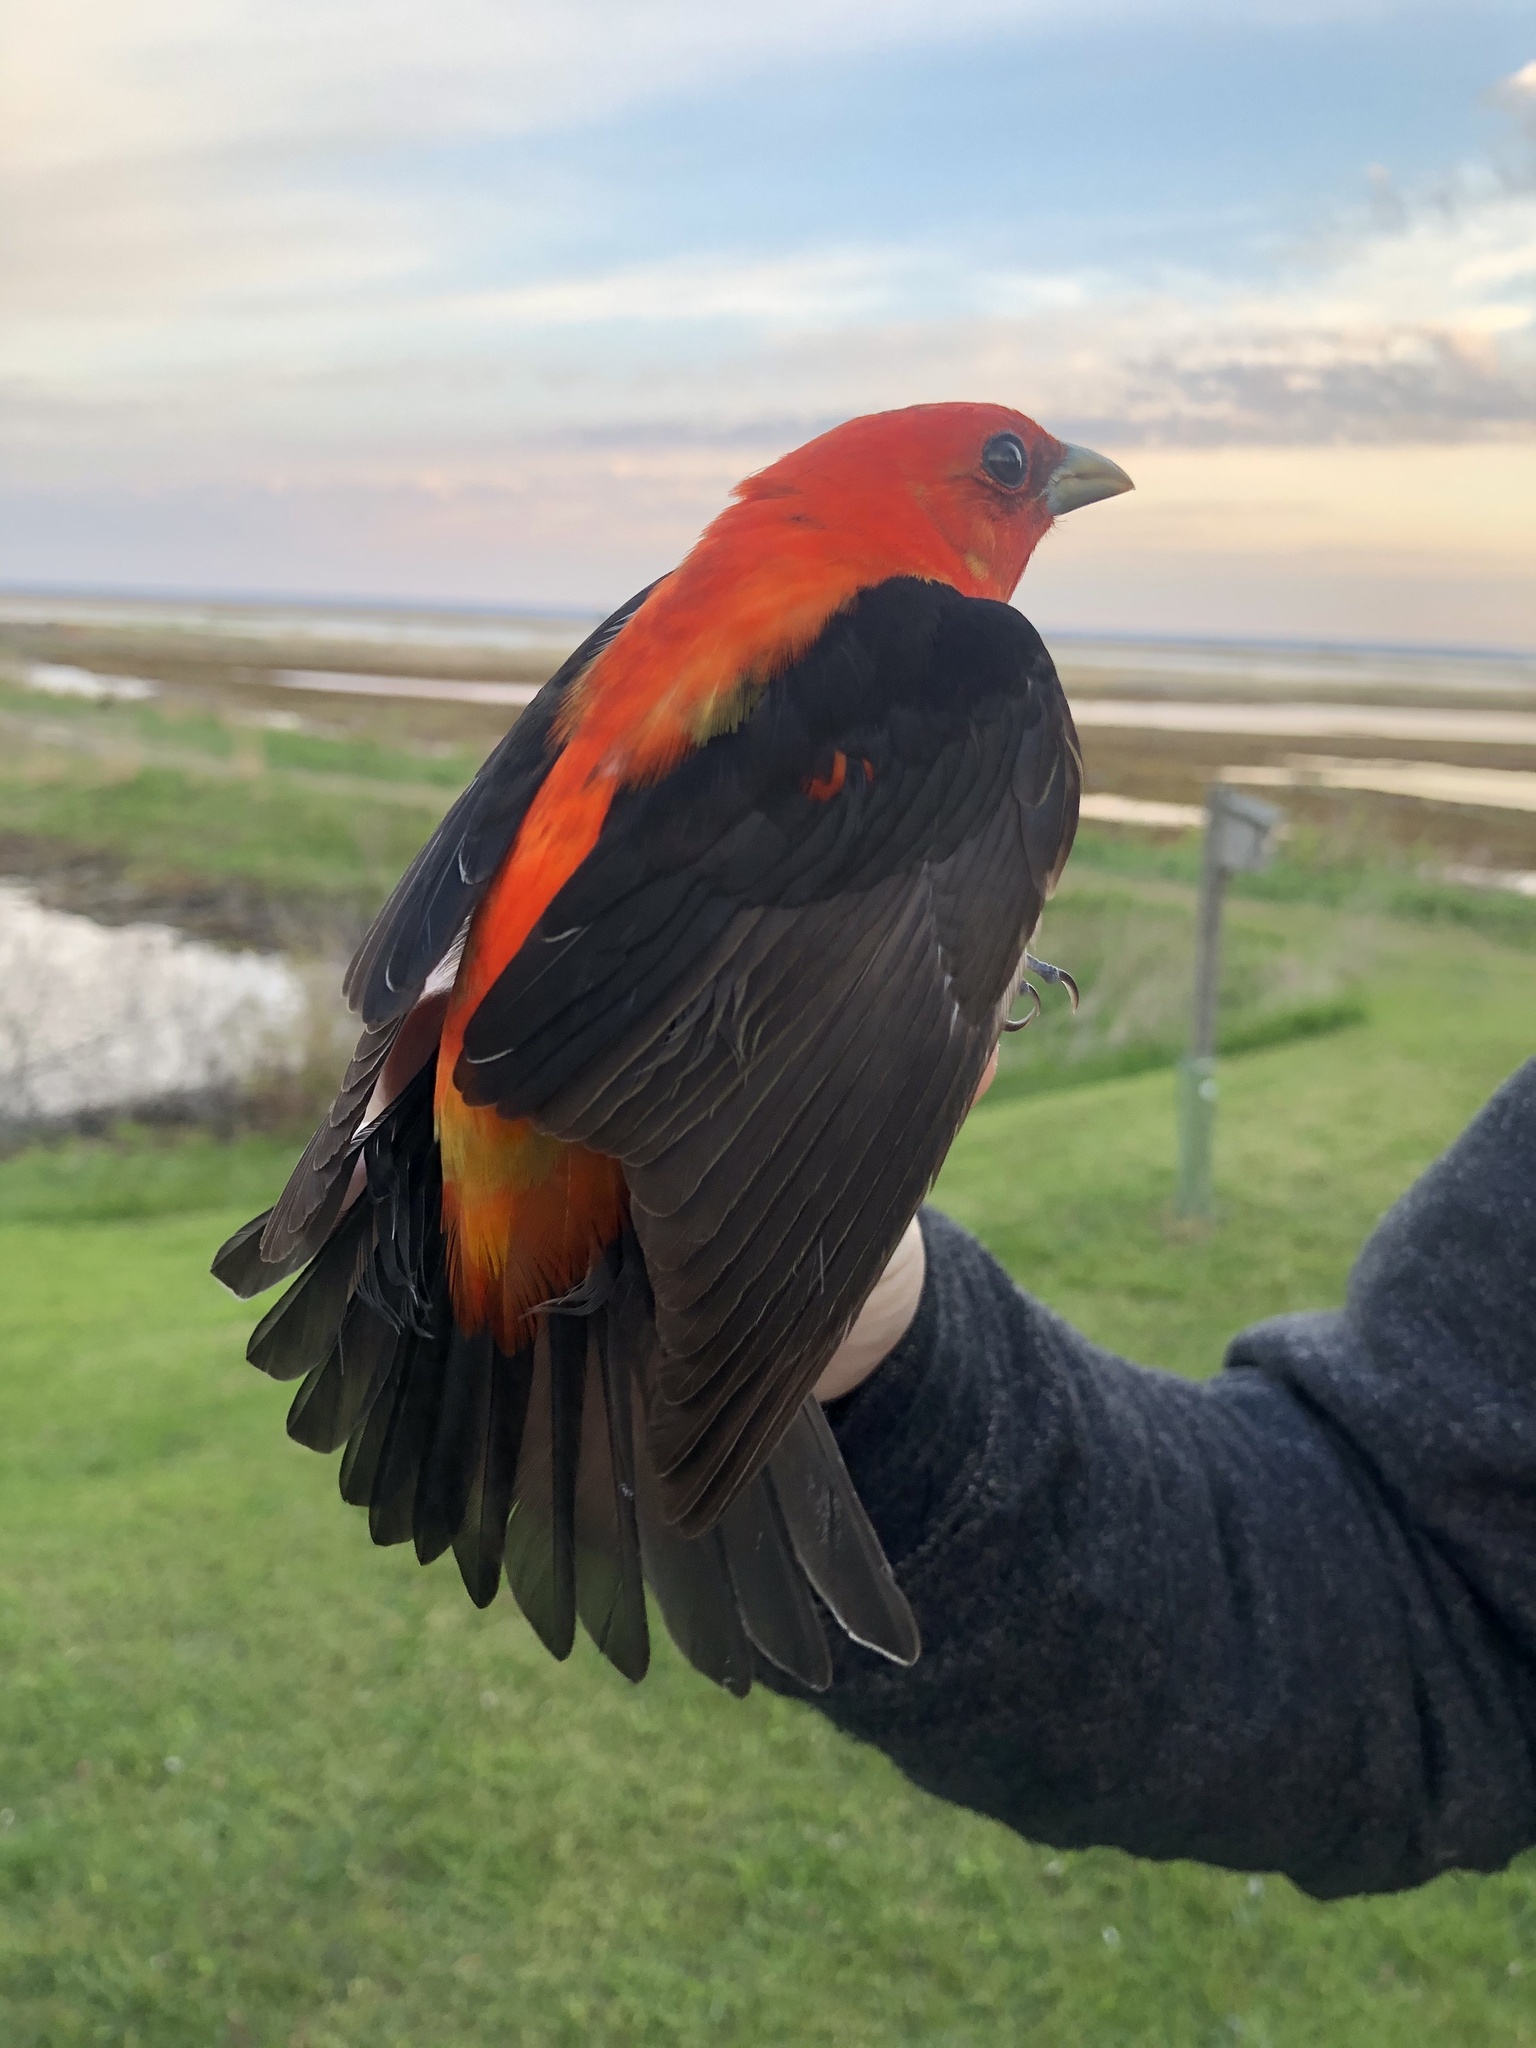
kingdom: Animalia
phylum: Chordata
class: Aves
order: Passeriformes
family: Cardinalidae
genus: Piranga
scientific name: Piranga olivacea
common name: Scarlet tanager
